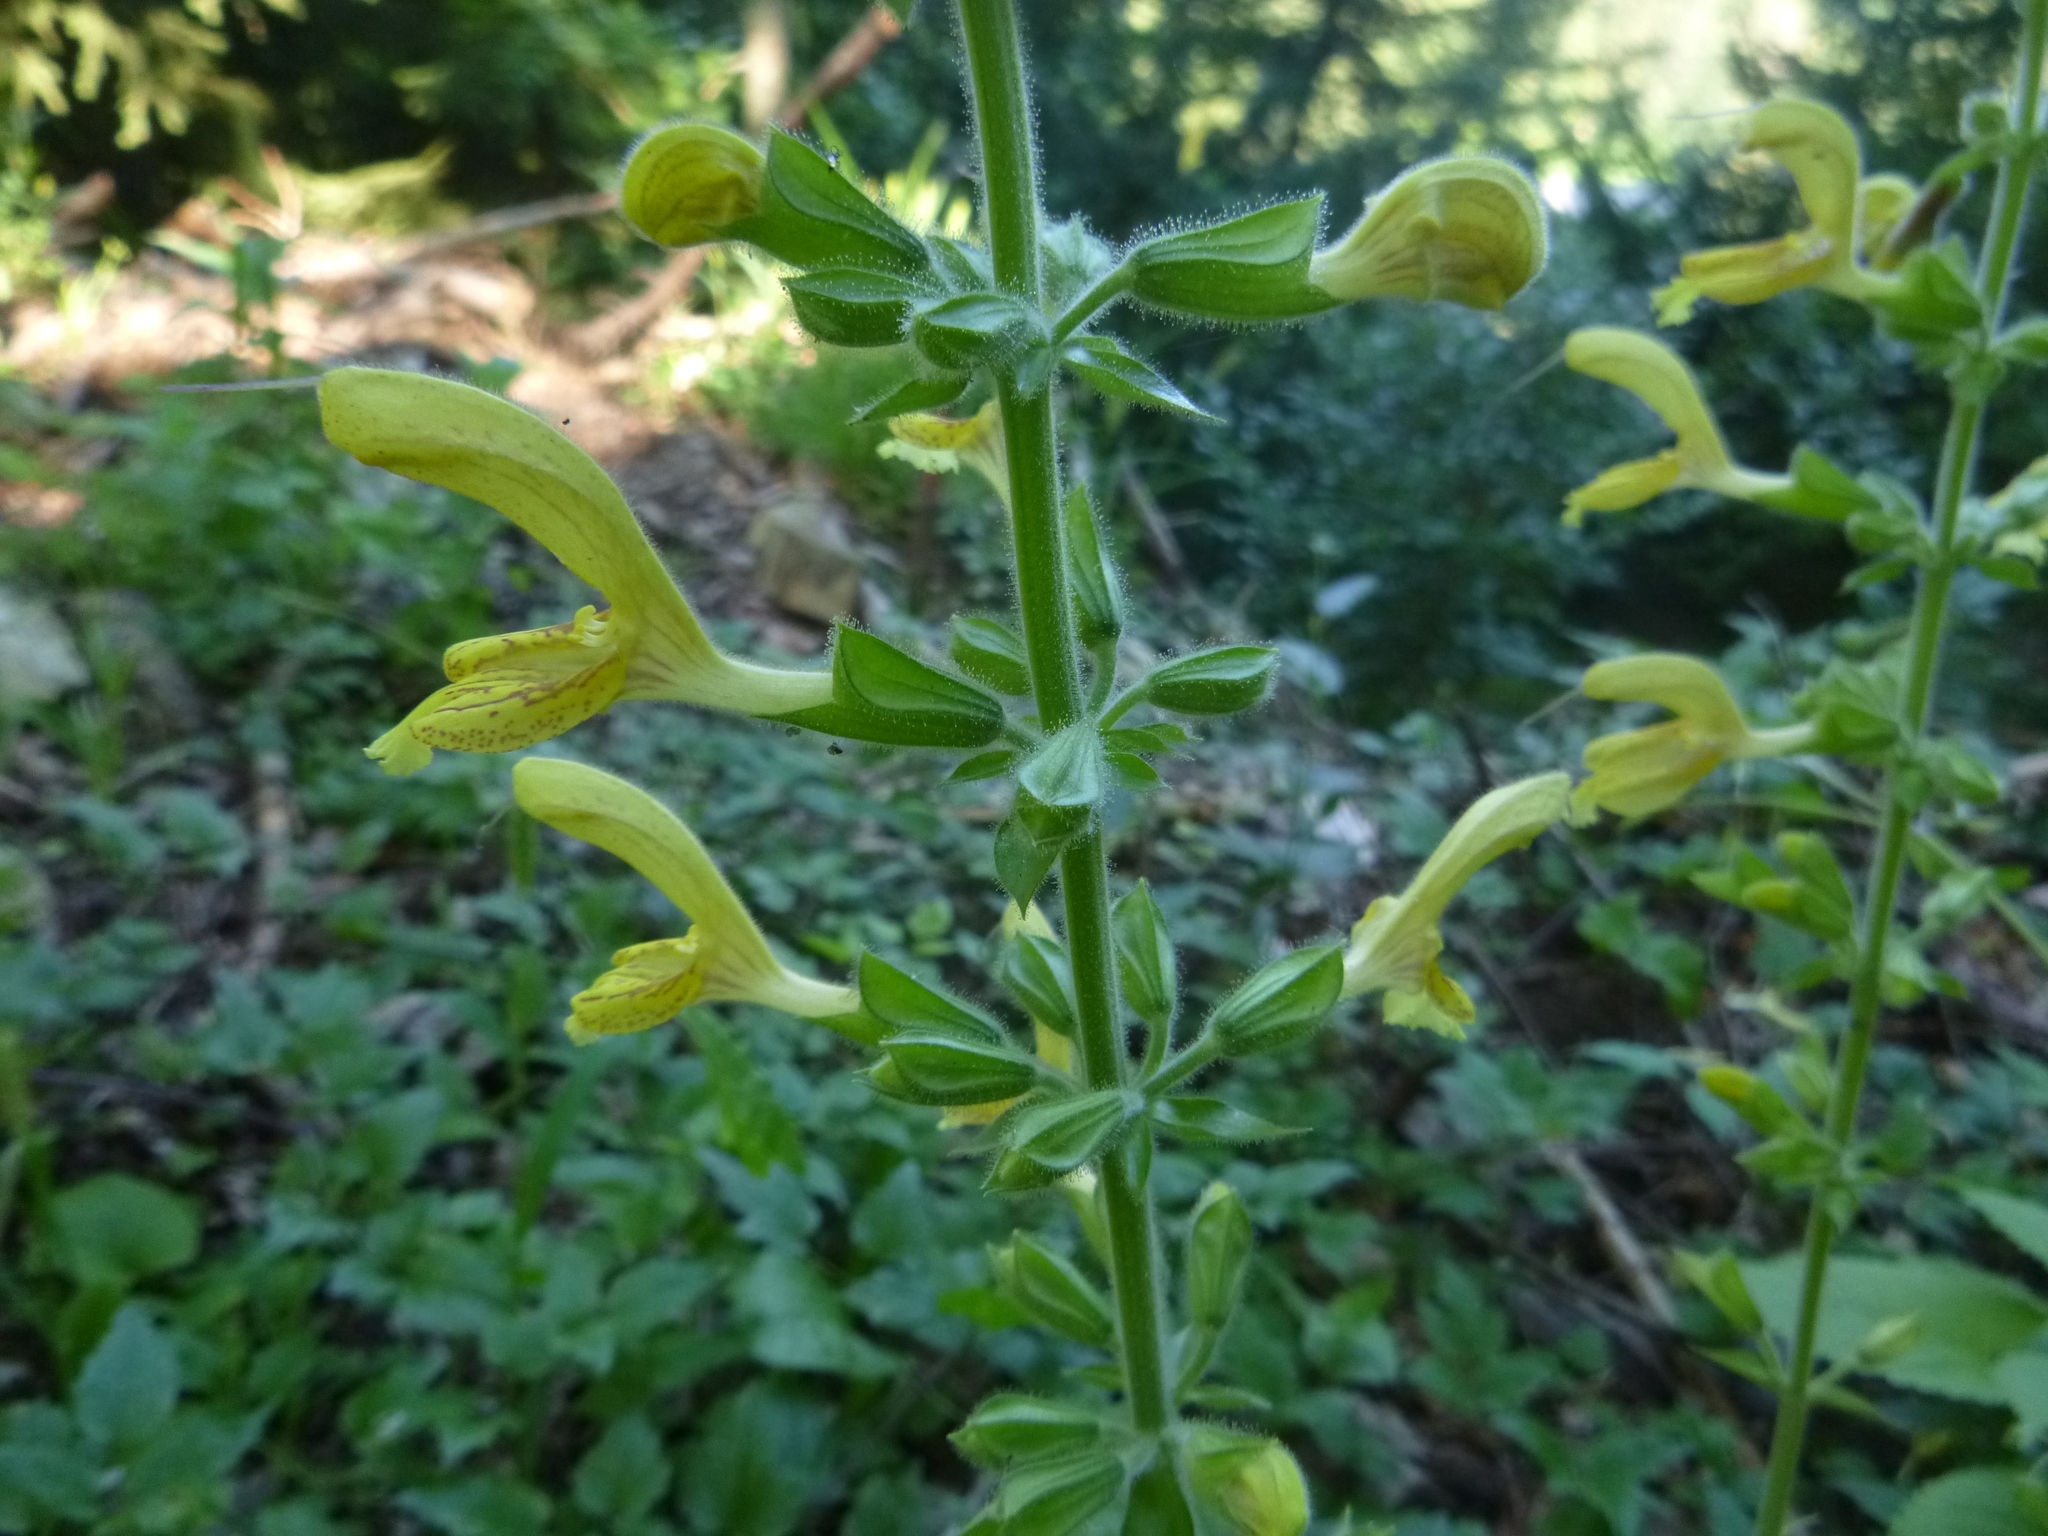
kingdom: Plantae
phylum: Tracheophyta
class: Magnoliopsida
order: Lamiales
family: Lamiaceae
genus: Salvia
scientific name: Salvia glutinosa
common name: Sticky clary
